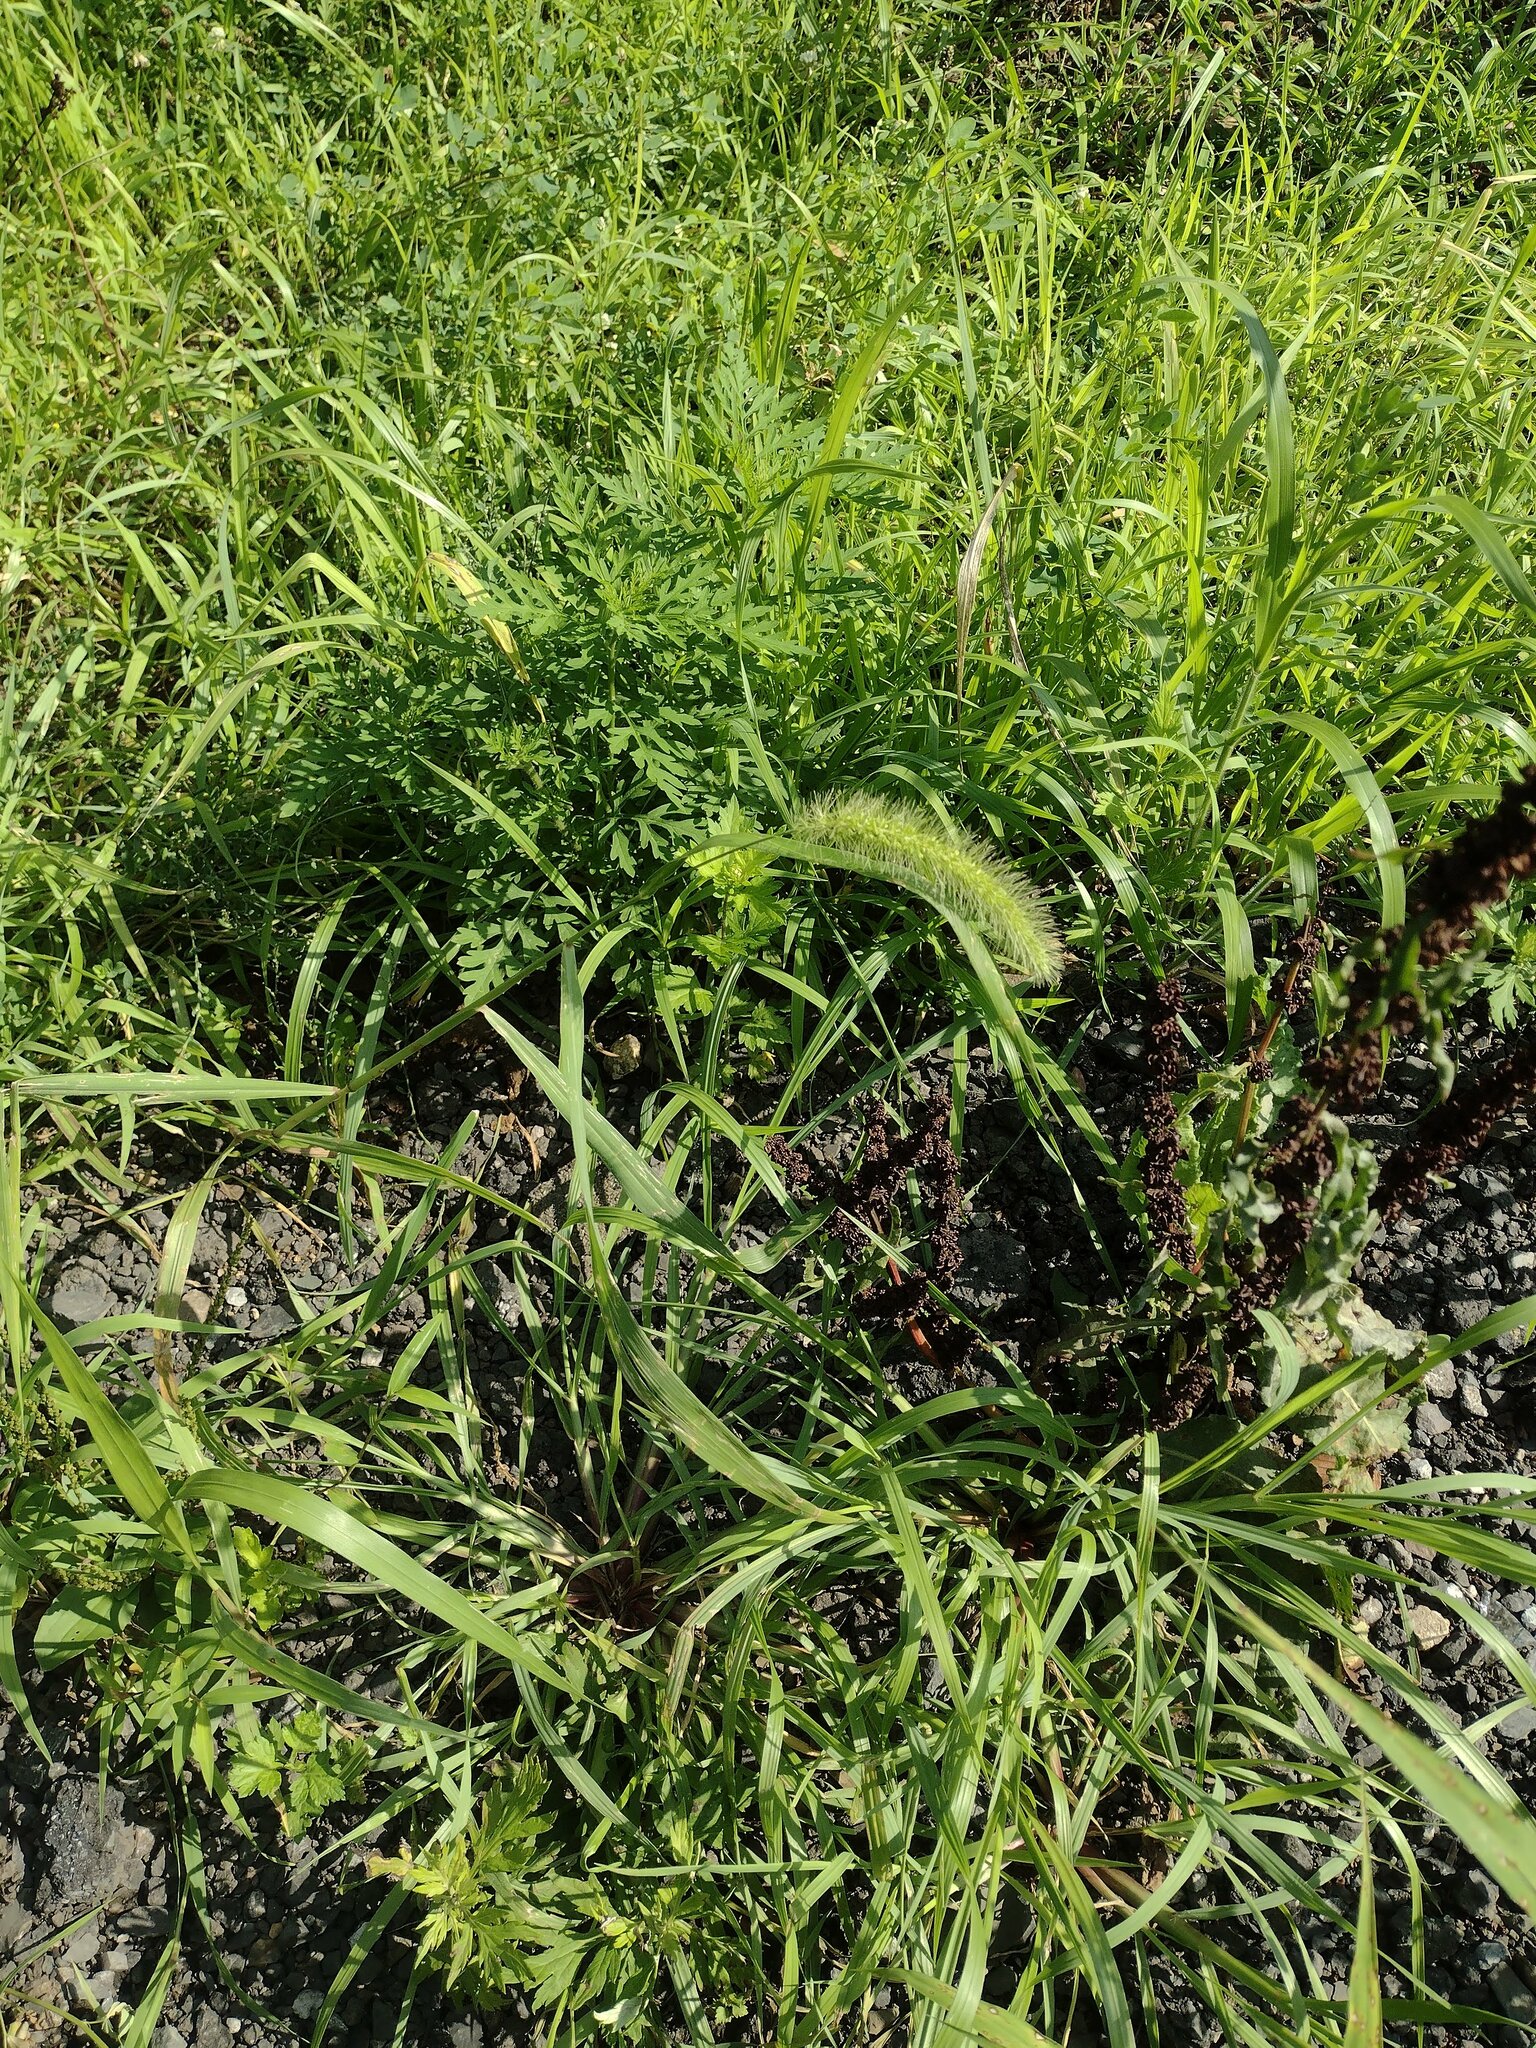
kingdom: Plantae
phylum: Tracheophyta
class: Liliopsida
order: Poales
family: Poaceae
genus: Setaria
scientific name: Setaria faberi
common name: Nodding bristle-grass
